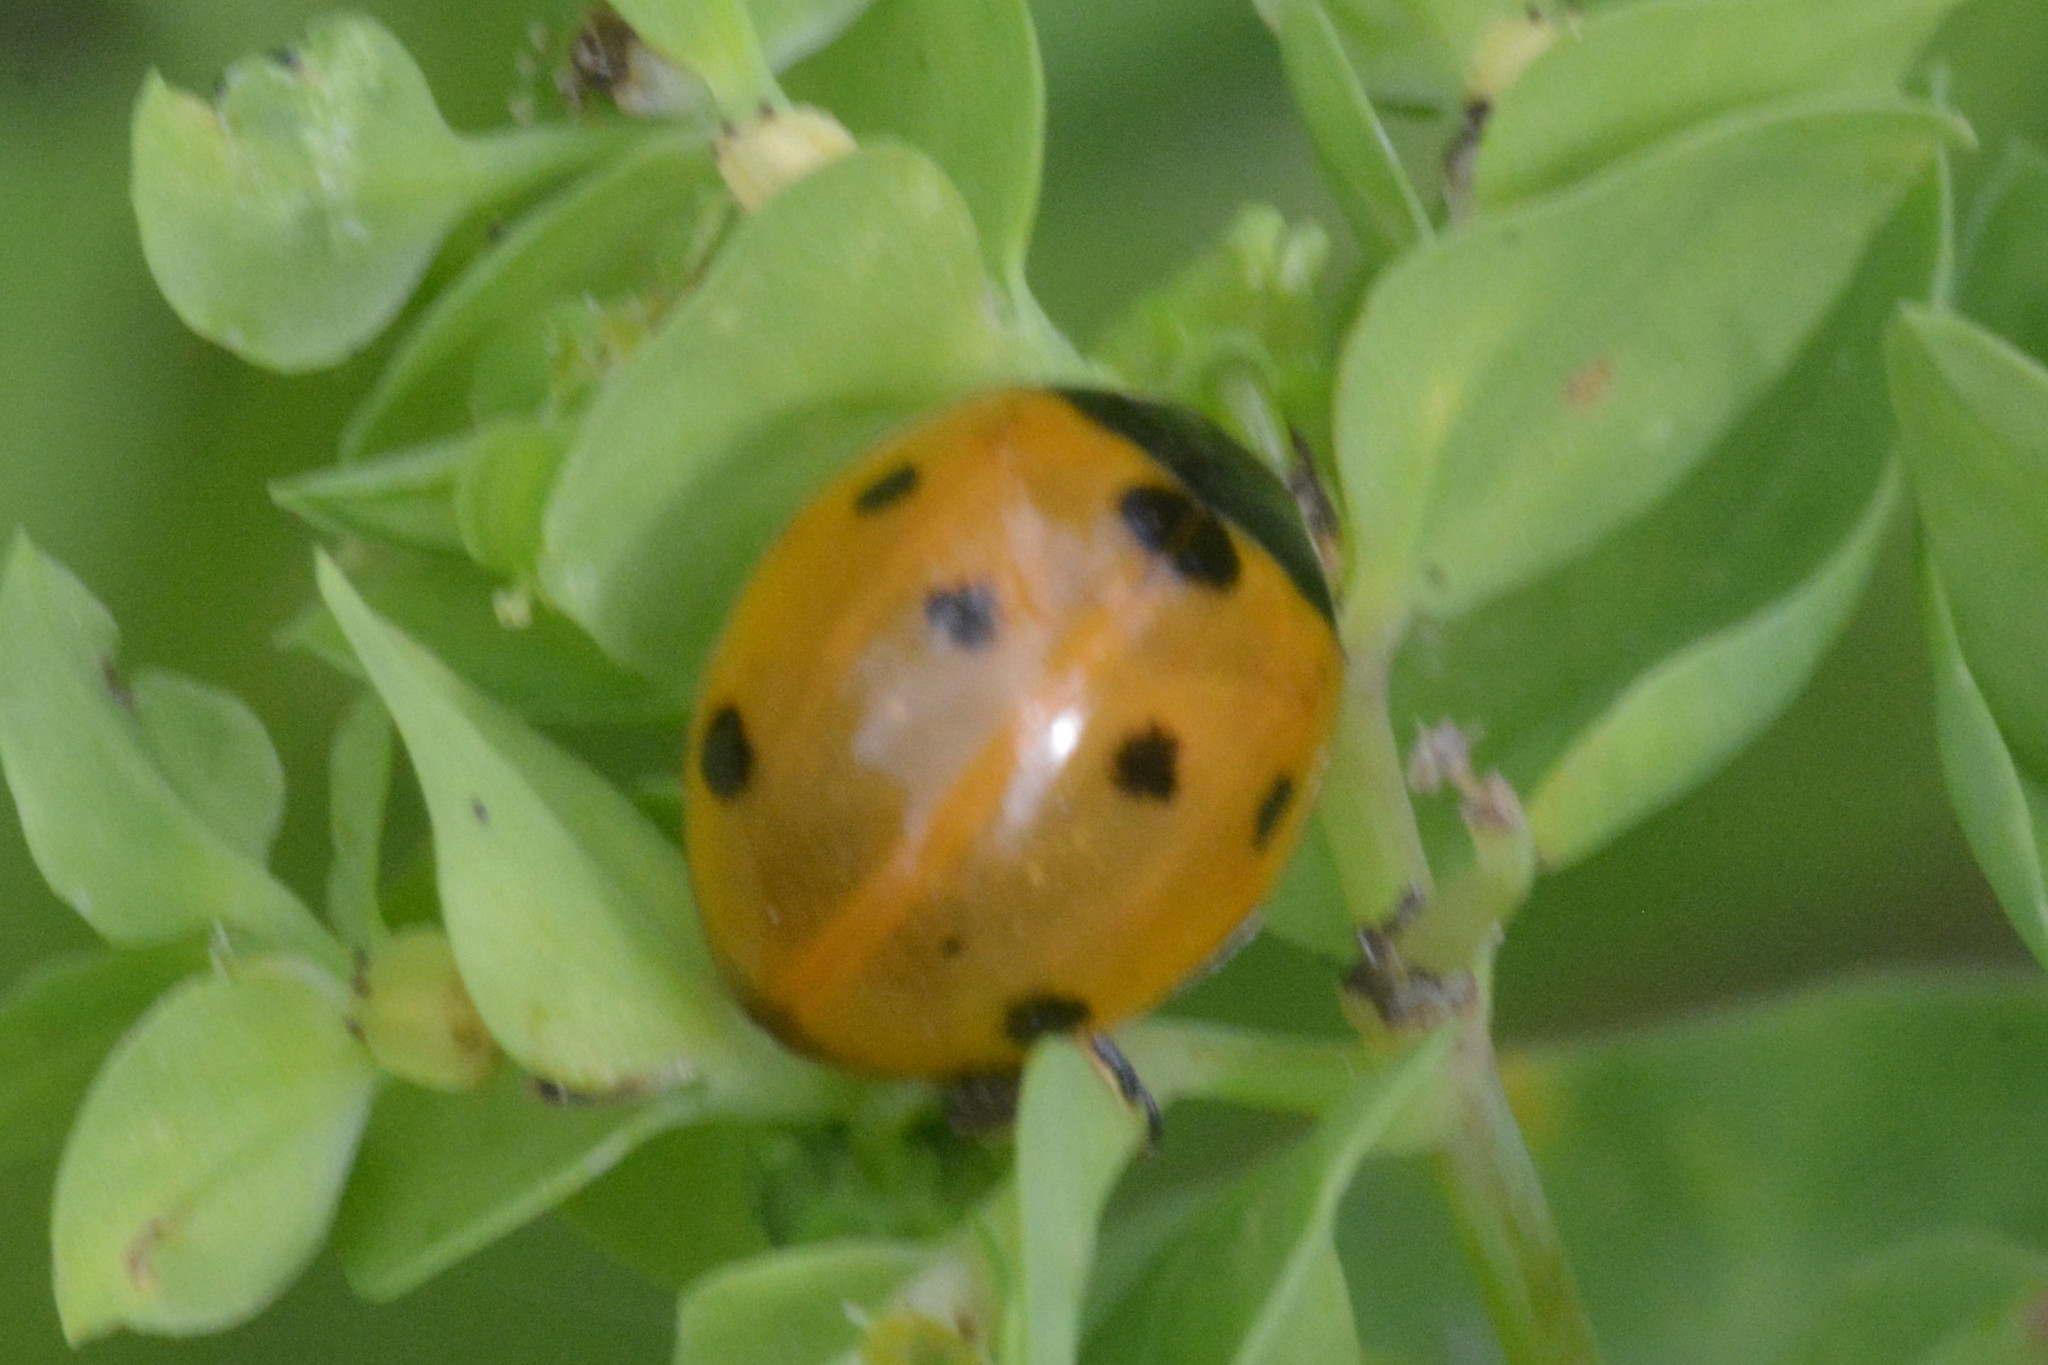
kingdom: Animalia
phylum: Arthropoda
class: Insecta
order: Coleoptera
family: Coccinellidae
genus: Coccinella
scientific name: Coccinella septempunctata
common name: Sevenspotted lady beetle
